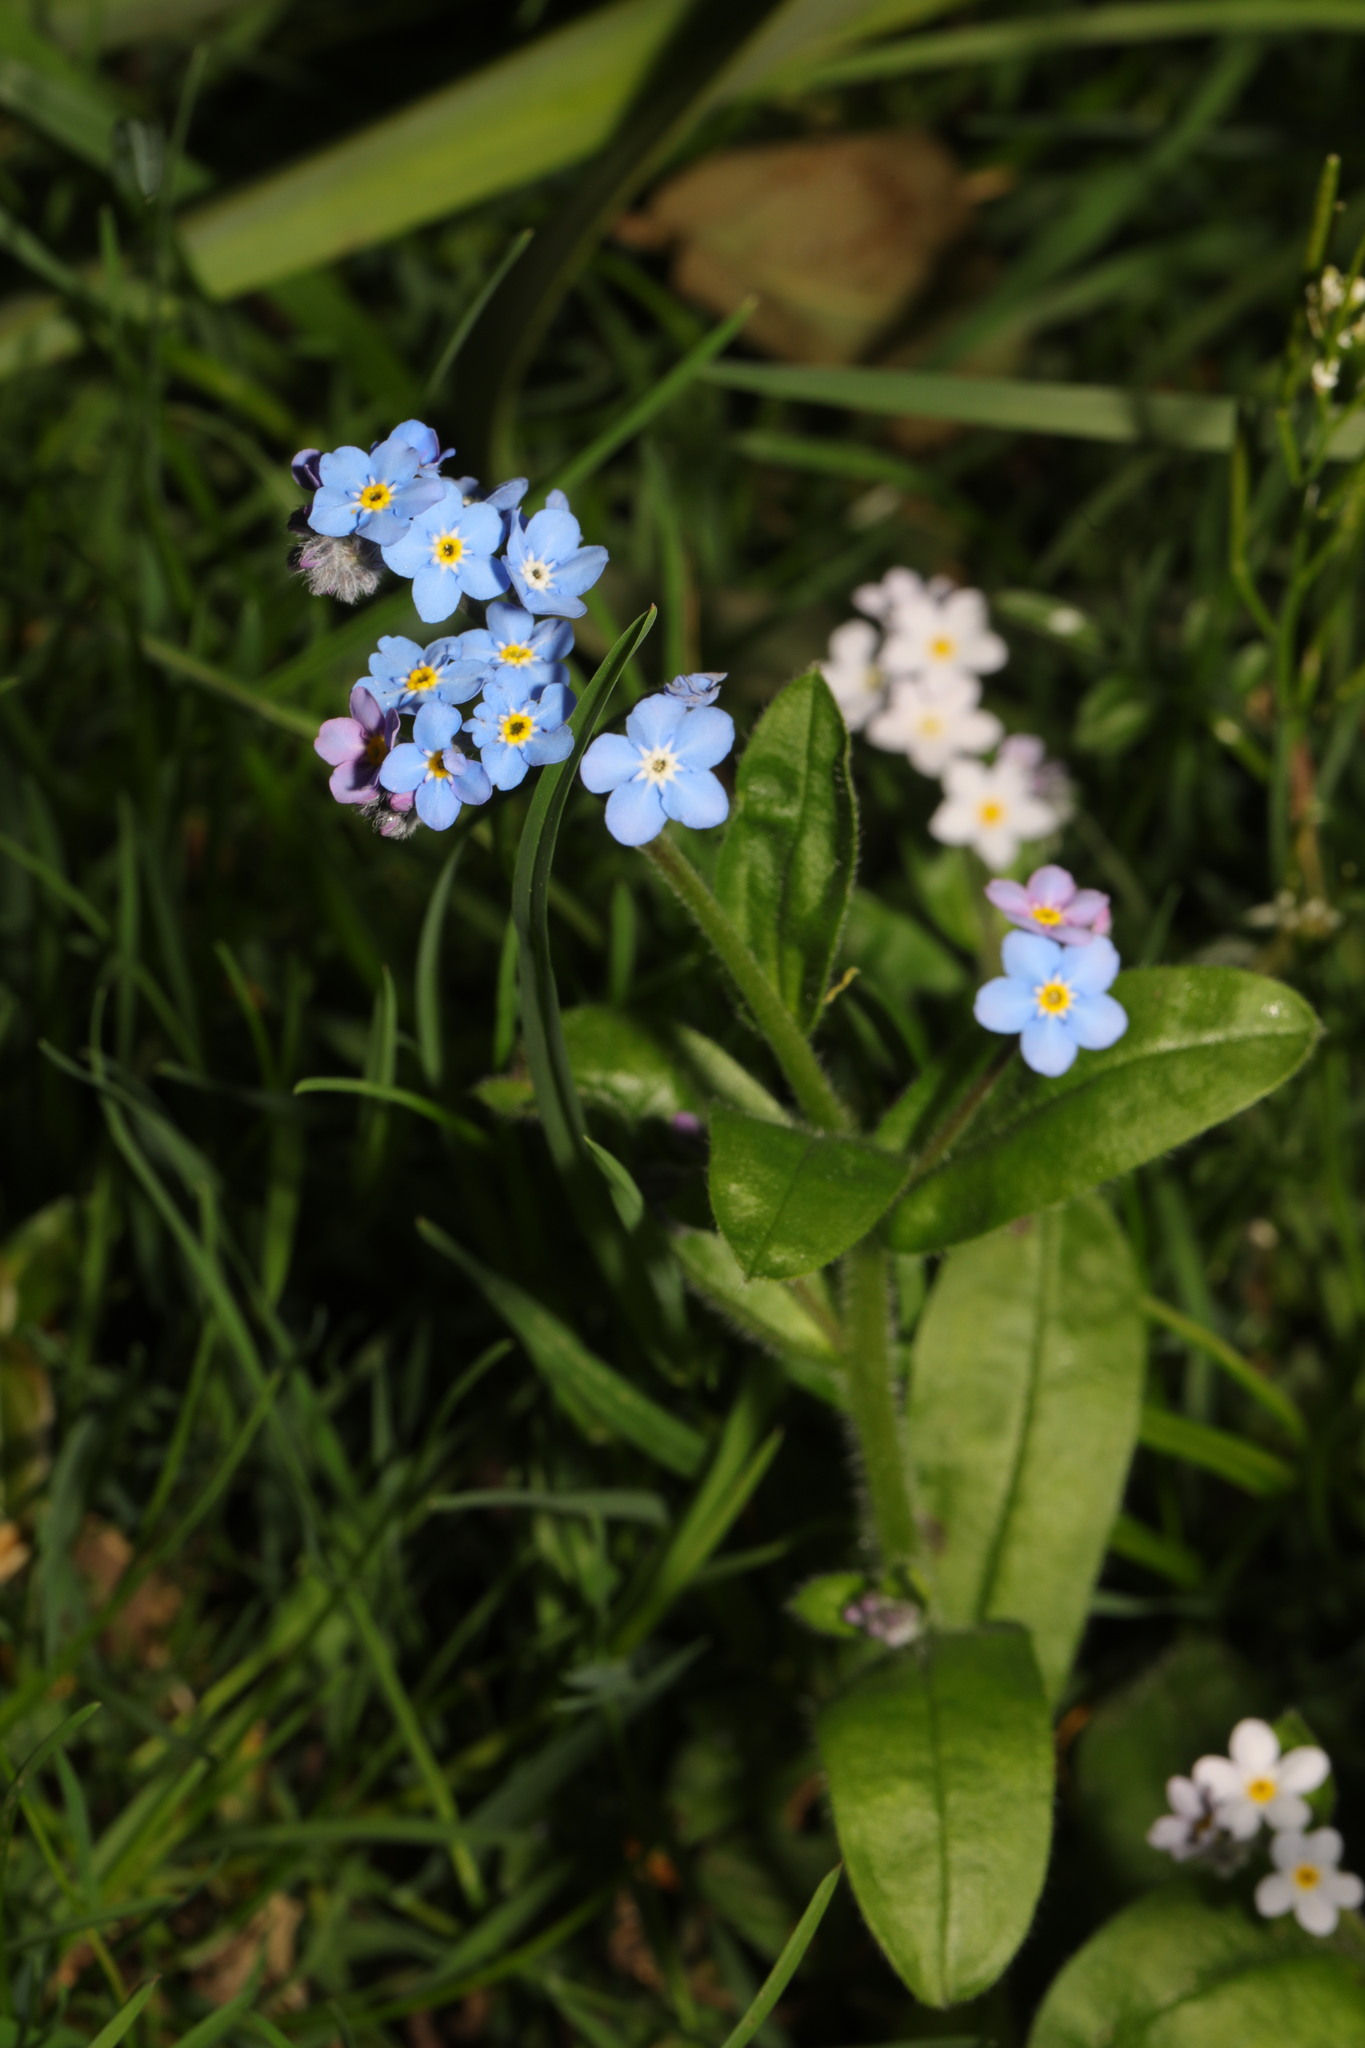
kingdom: Plantae
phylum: Tracheophyta
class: Magnoliopsida
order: Boraginales
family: Boraginaceae
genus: Myosotis
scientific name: Myosotis sylvatica
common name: Wood forget-me-not
